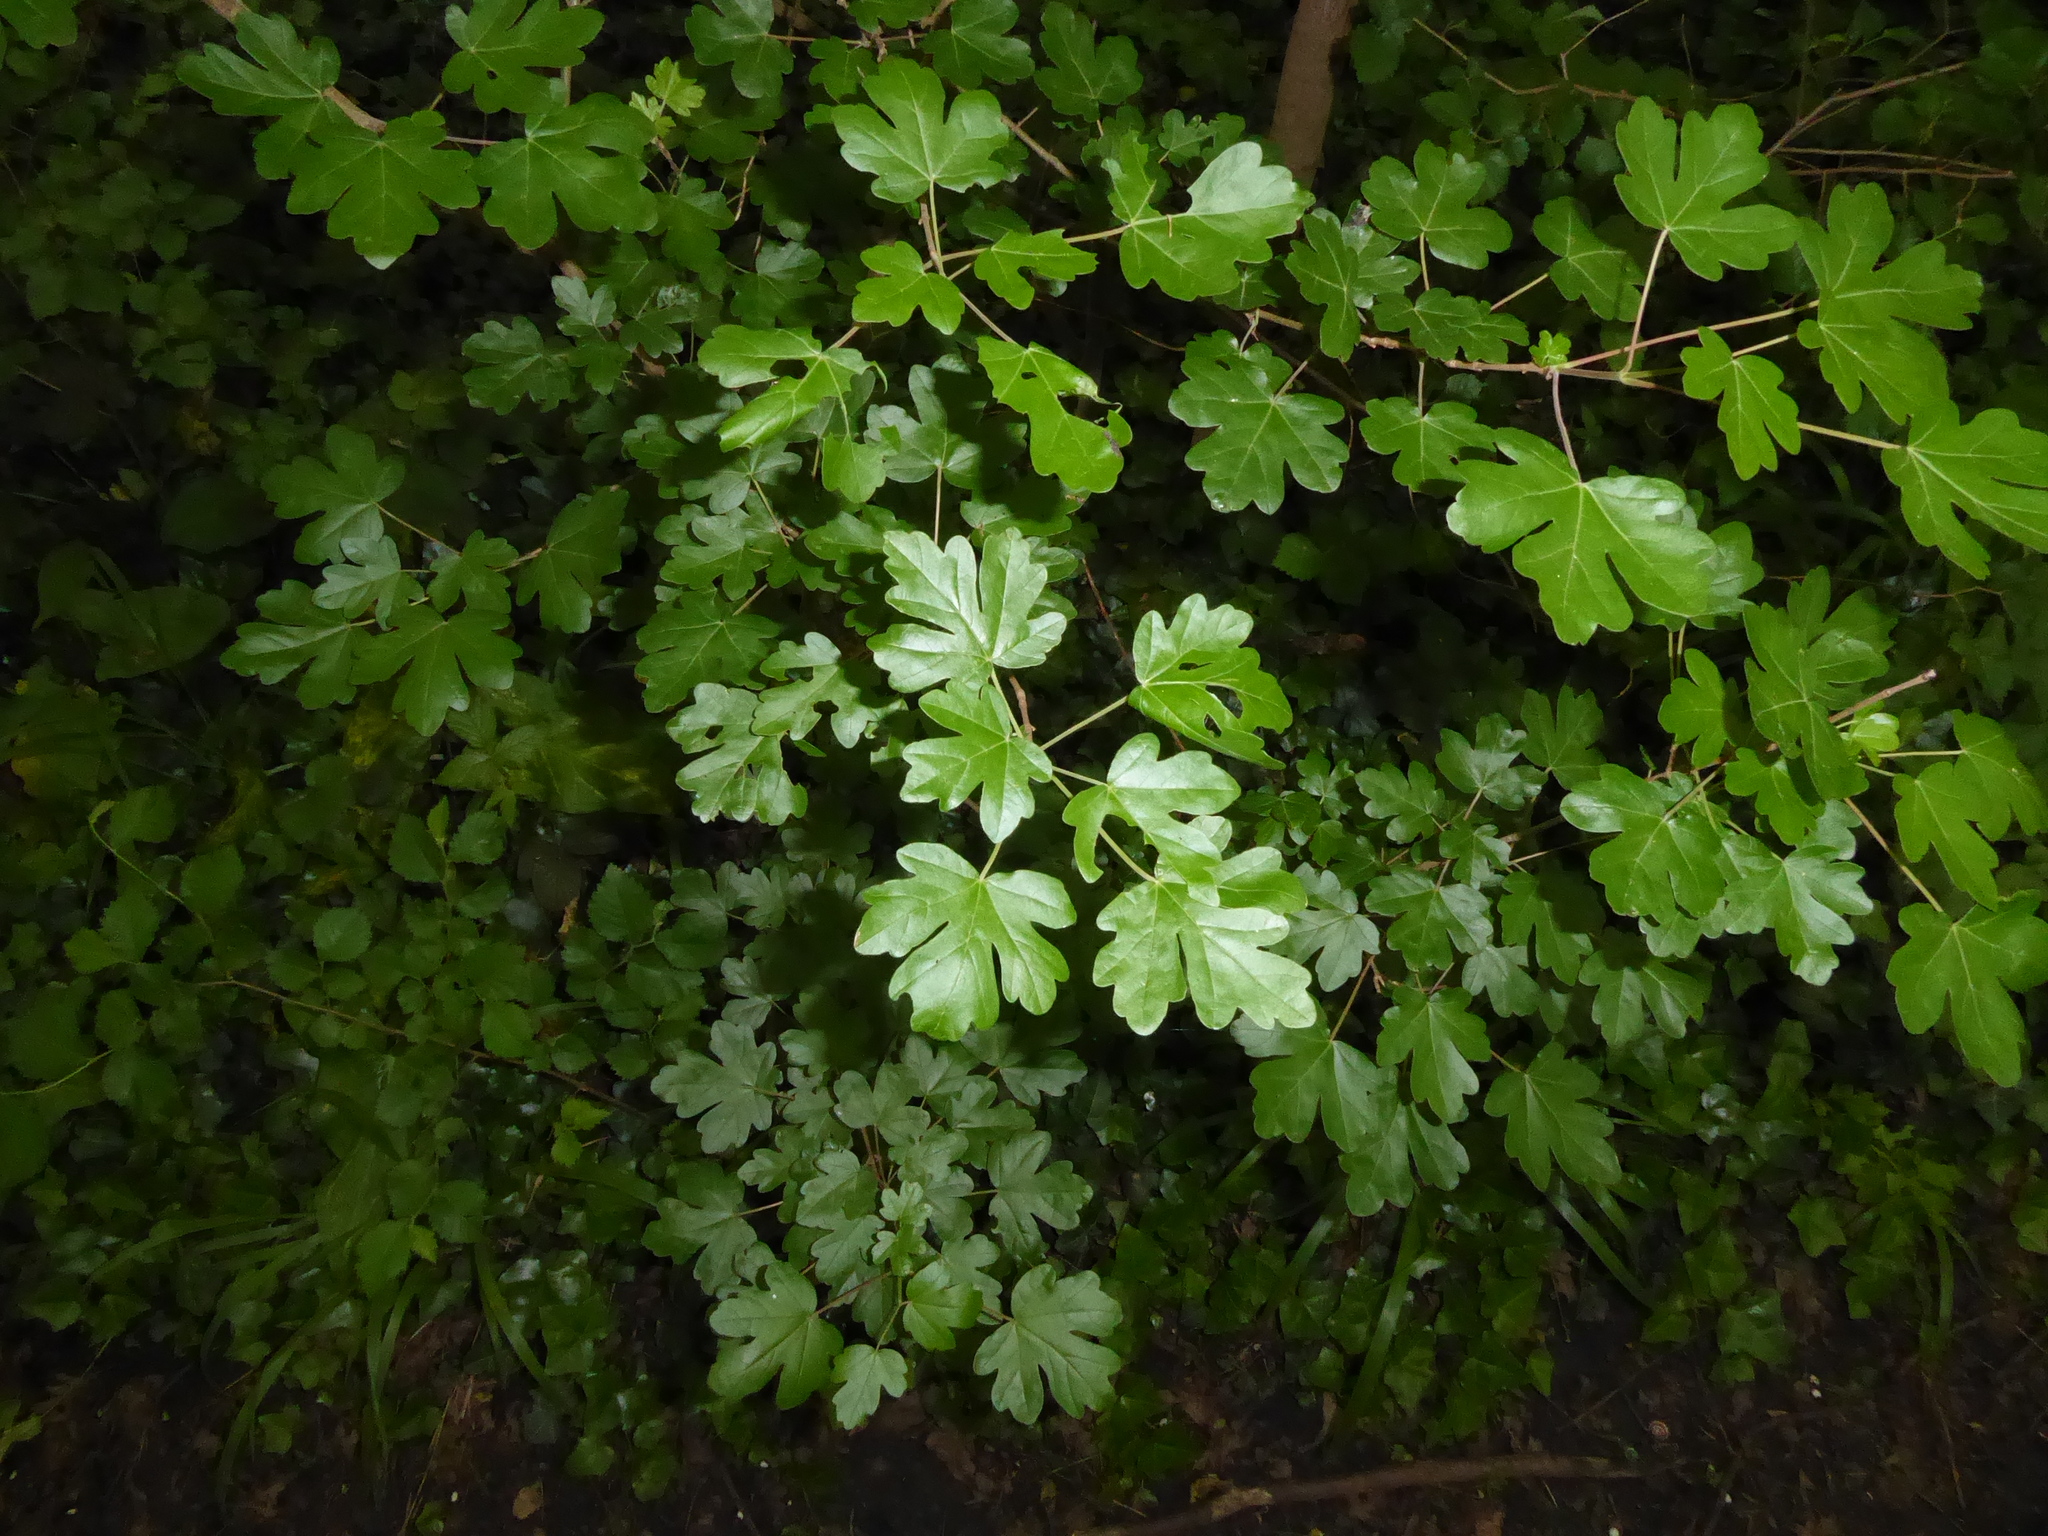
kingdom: Plantae
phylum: Tracheophyta
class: Magnoliopsida
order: Sapindales
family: Sapindaceae
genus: Acer
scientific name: Acer campestre
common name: Field maple
